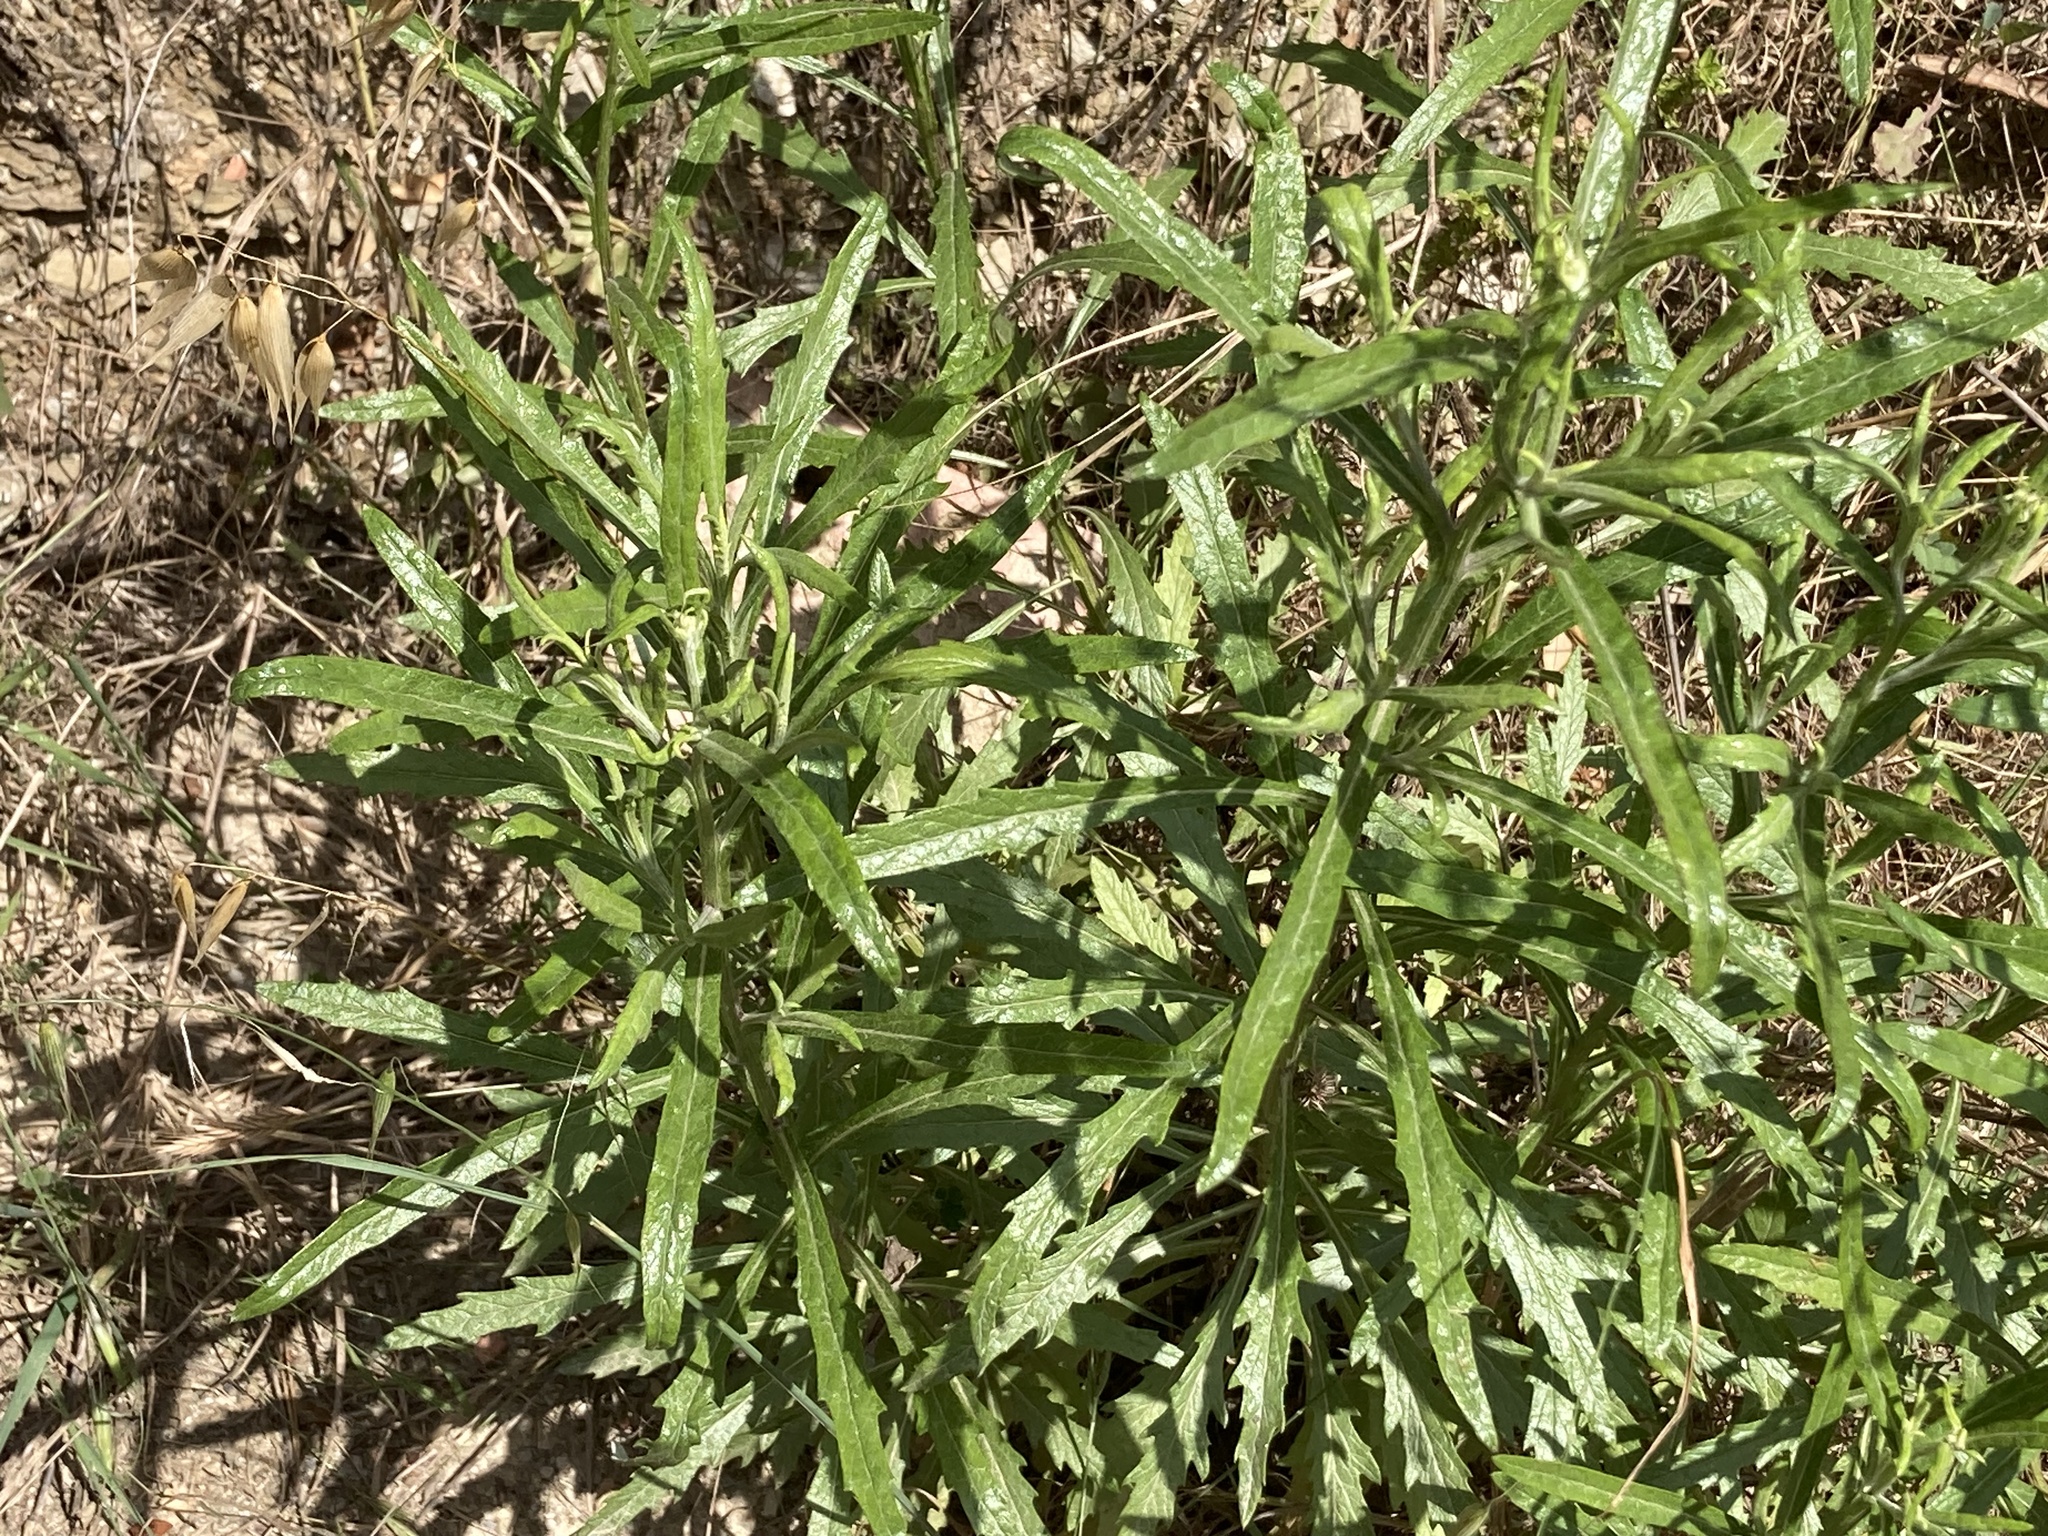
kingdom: Plantae
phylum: Tracheophyta
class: Magnoliopsida
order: Asterales
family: Asteraceae
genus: Senecio
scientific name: Senecio pterophorus
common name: Shoddy ragwort
